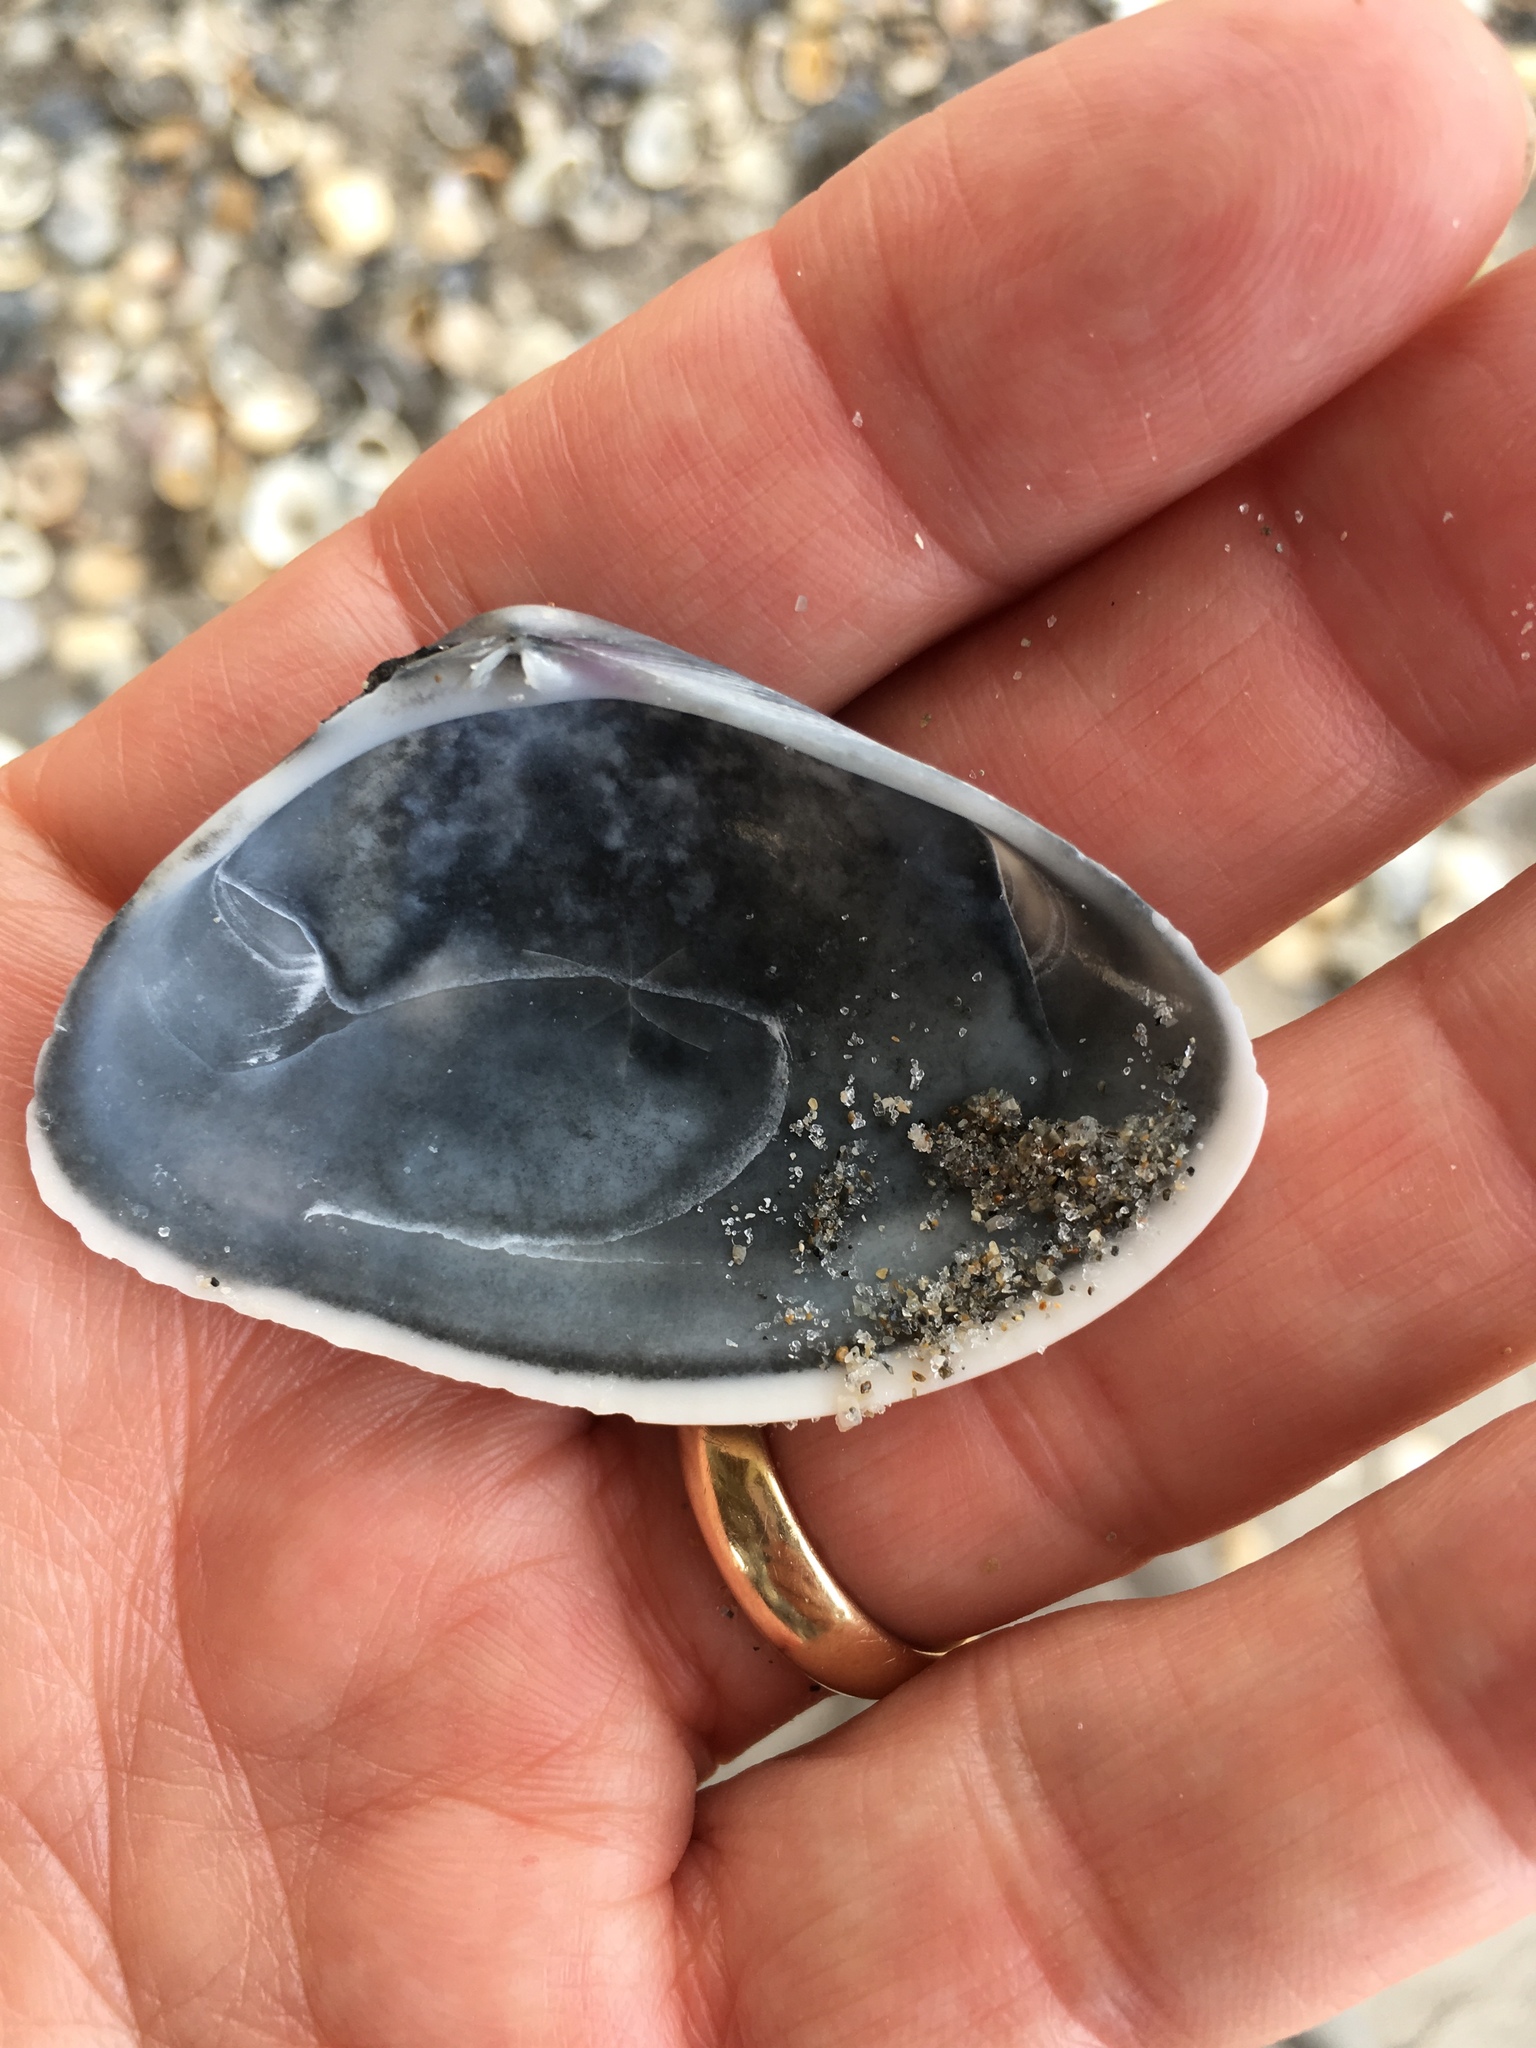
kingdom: Animalia
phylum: Mollusca
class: Bivalvia
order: Cardiida
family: Donacidae
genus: Iphigenia
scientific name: Iphigenia brasiliensis
